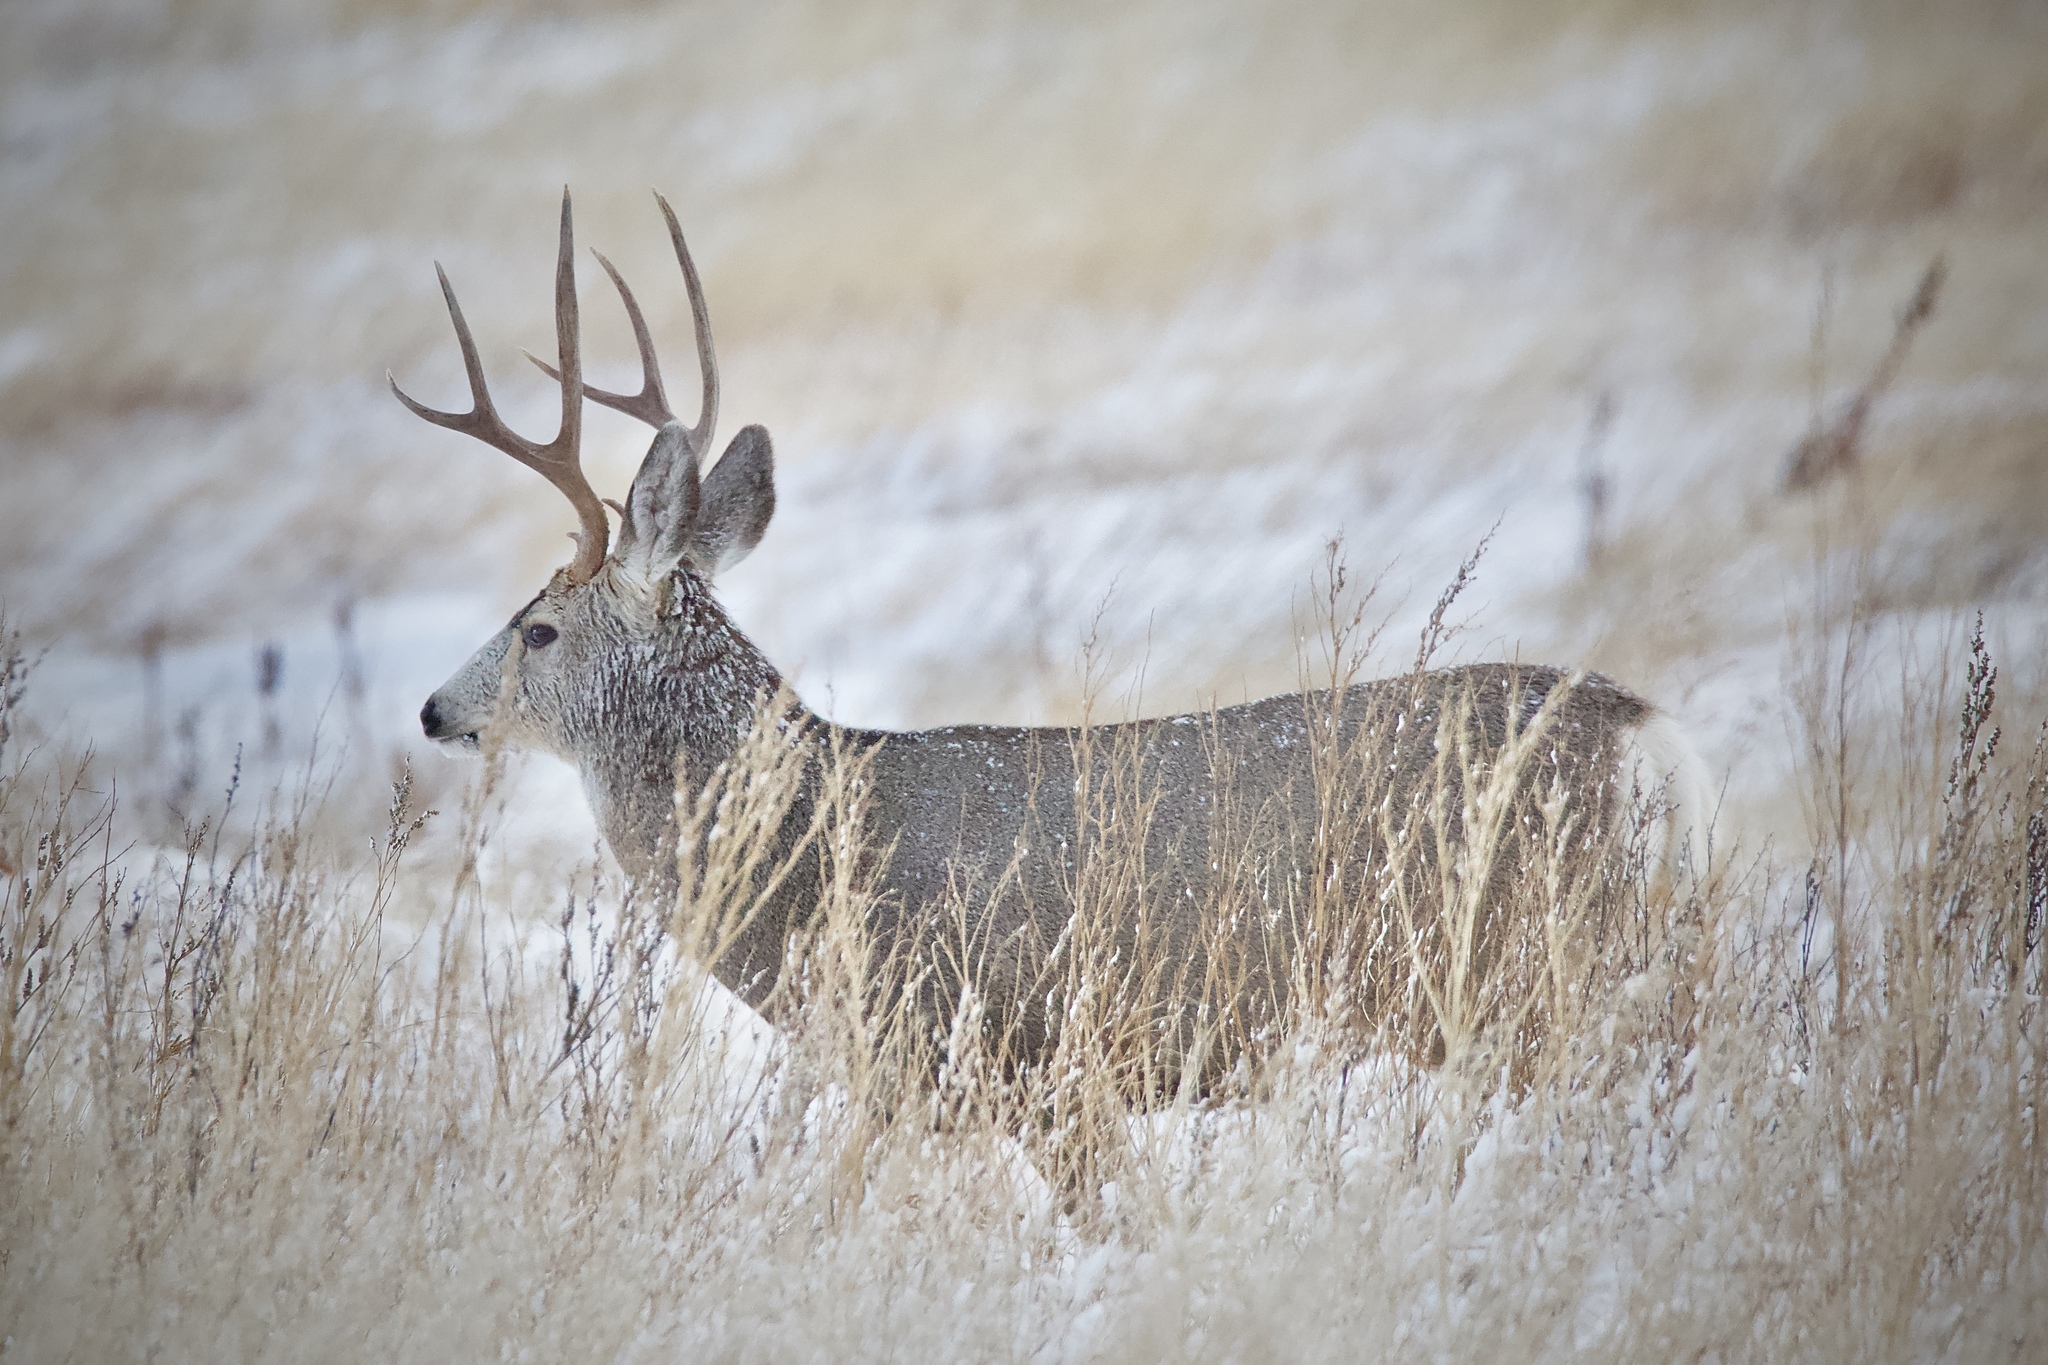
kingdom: Animalia
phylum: Chordata
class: Mammalia
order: Artiodactyla
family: Cervidae
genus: Odocoileus
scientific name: Odocoileus hemionus
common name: Mule deer
